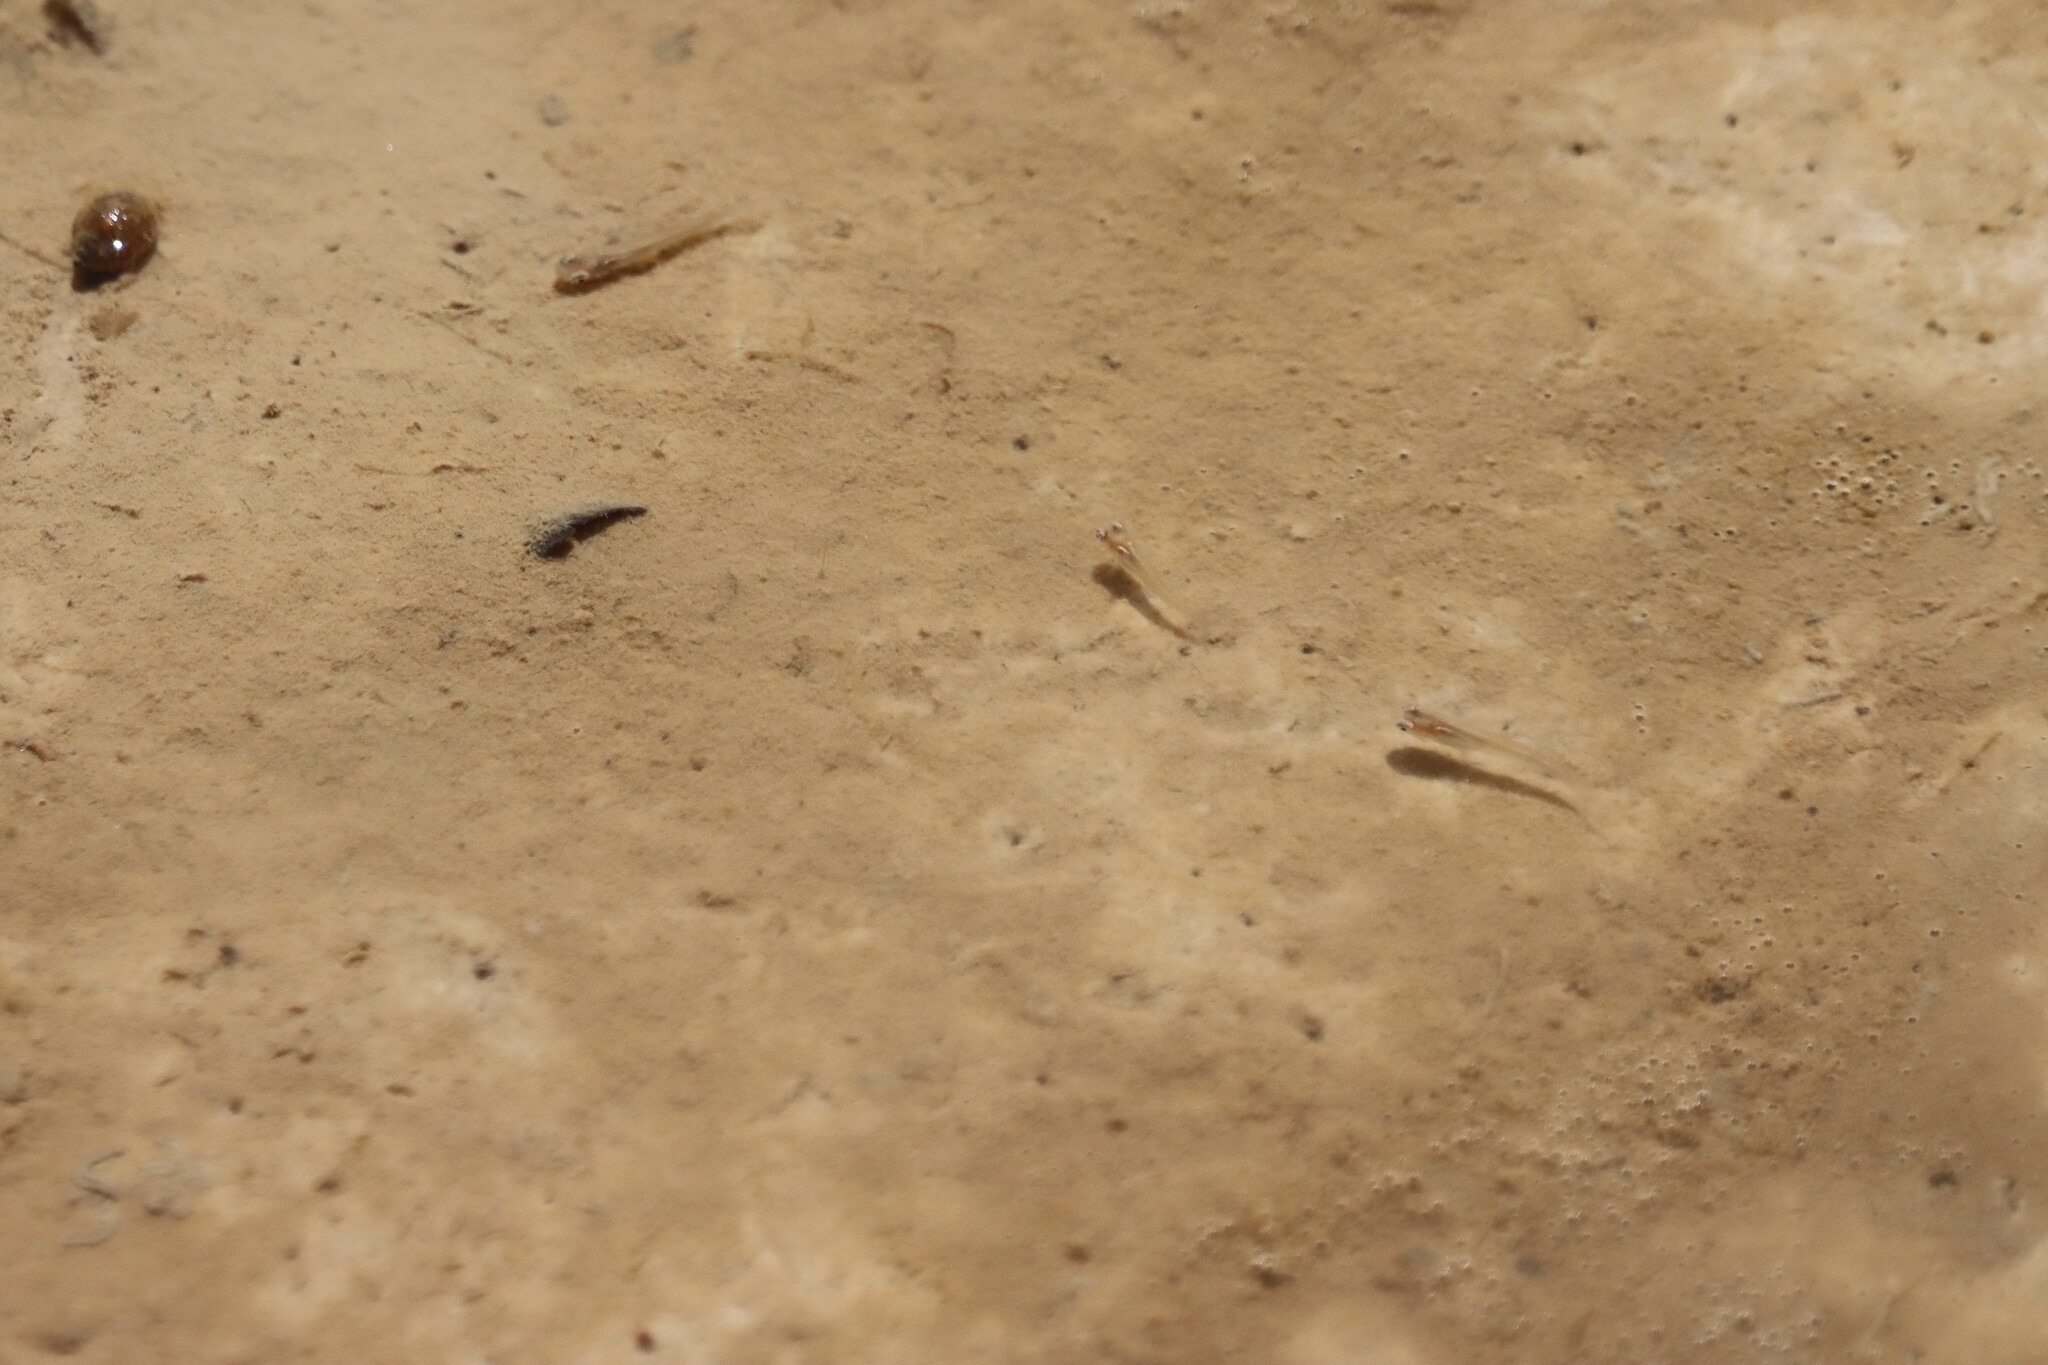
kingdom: Animalia
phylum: Chordata
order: Cyprinodontiformes
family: Poeciliidae
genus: Gambusia
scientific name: Gambusia affinis
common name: Mosquitofish
